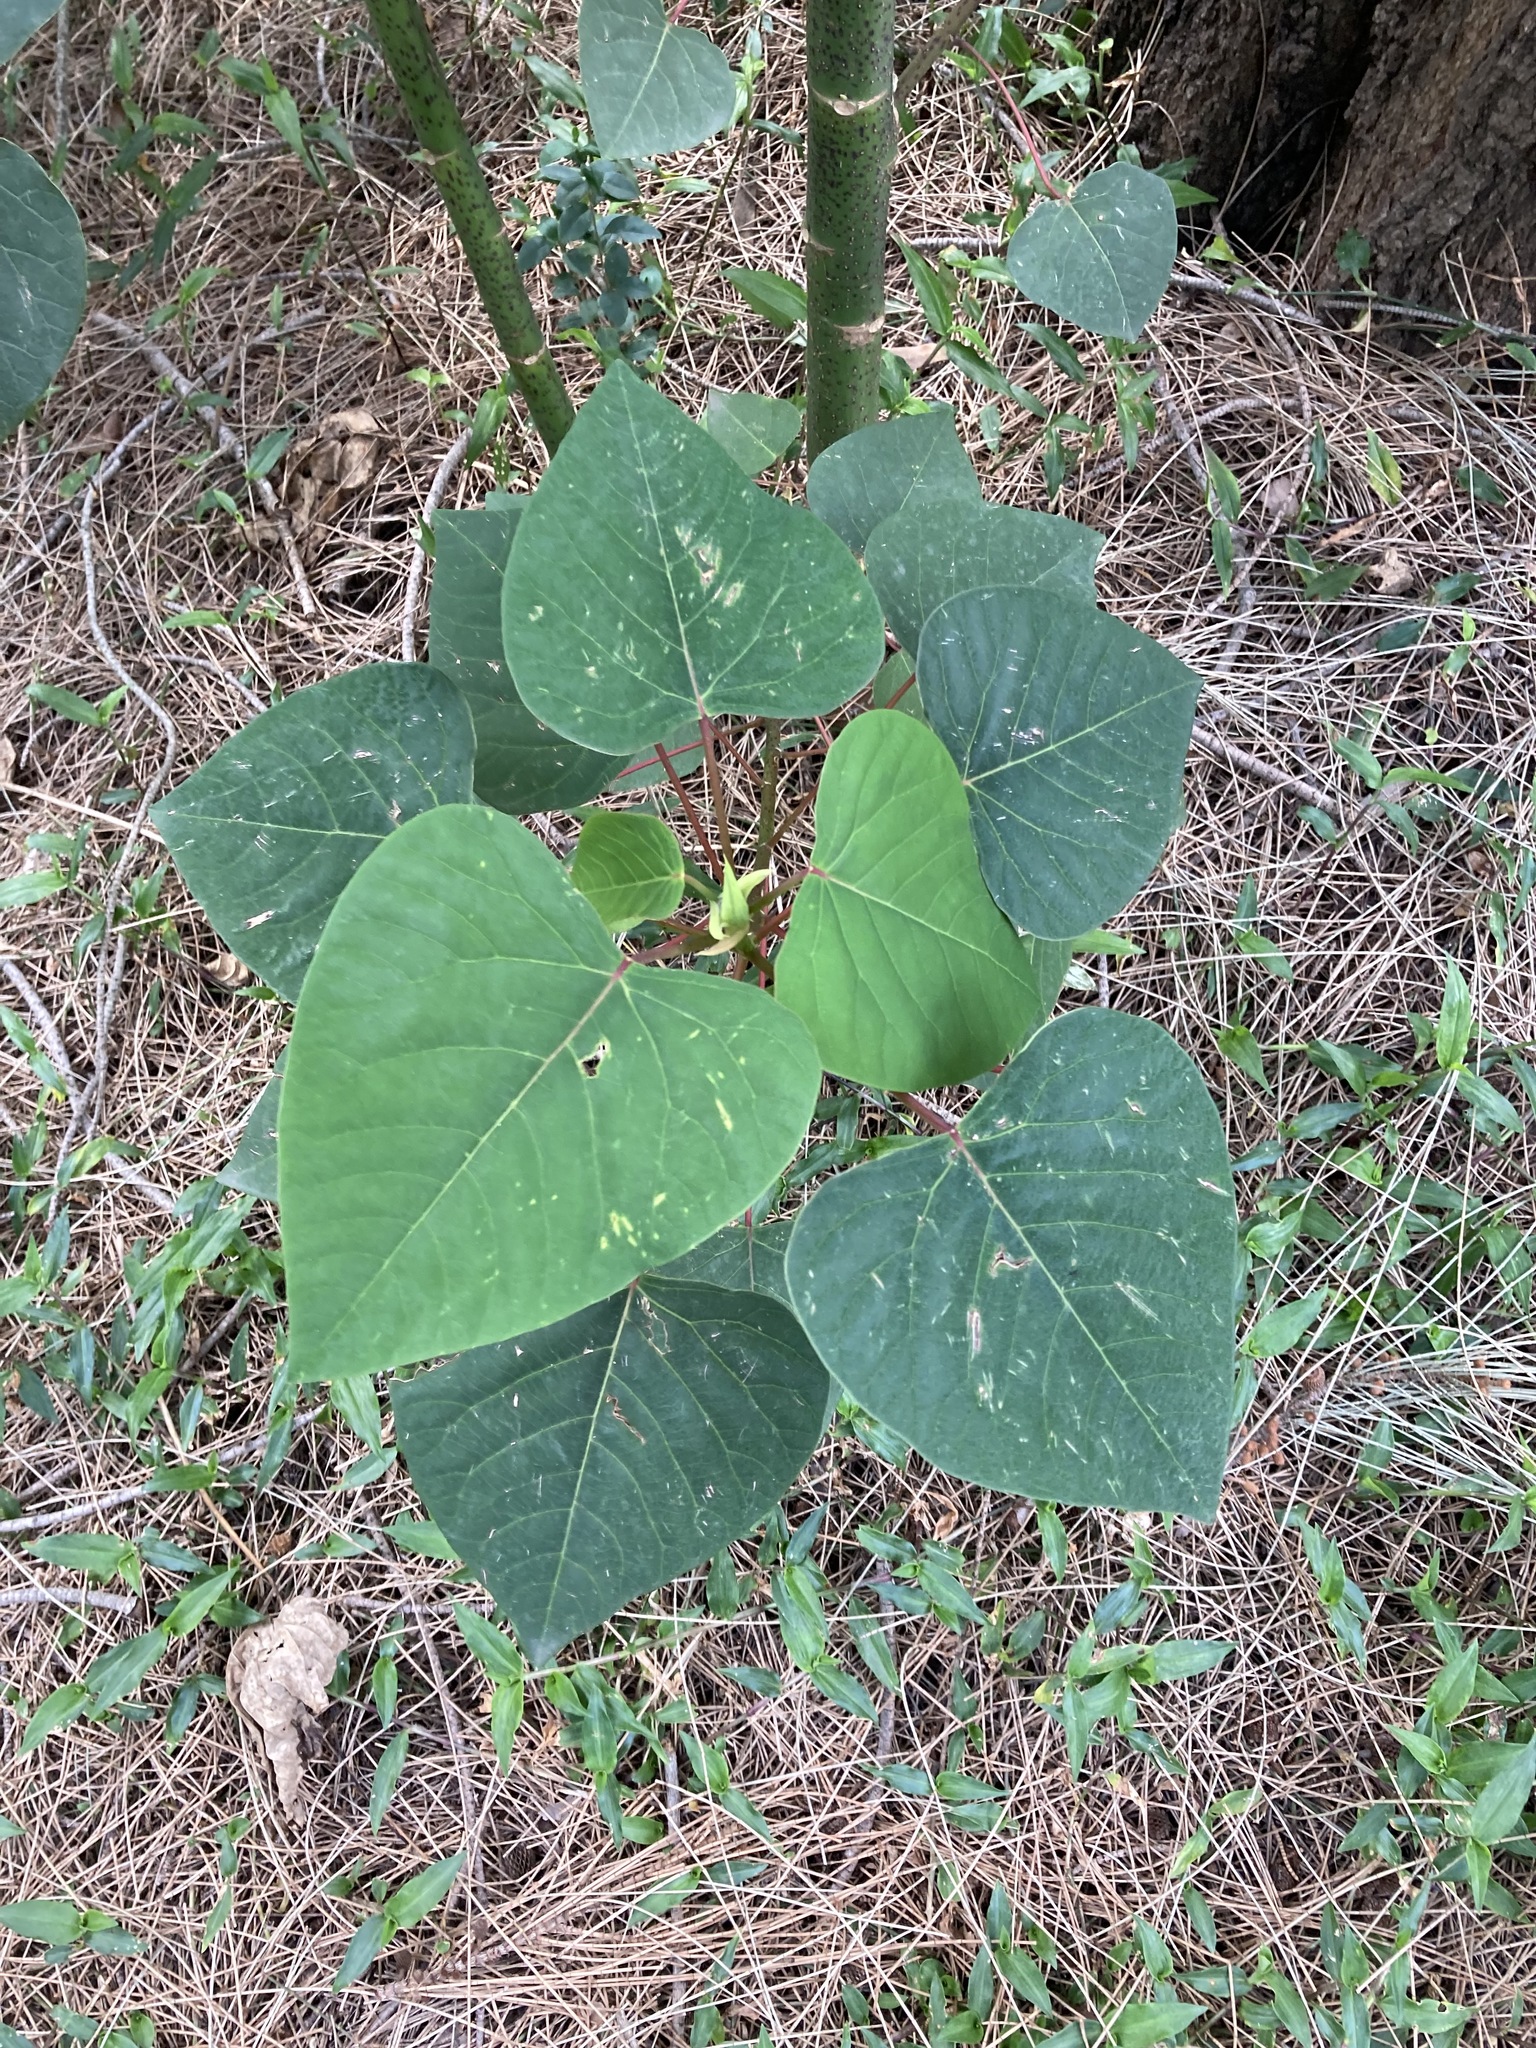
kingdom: Plantae
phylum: Tracheophyta
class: Magnoliopsida
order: Malpighiales
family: Euphorbiaceae
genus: Homalanthus
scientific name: Homalanthus populifolius
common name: Queensland poplar
